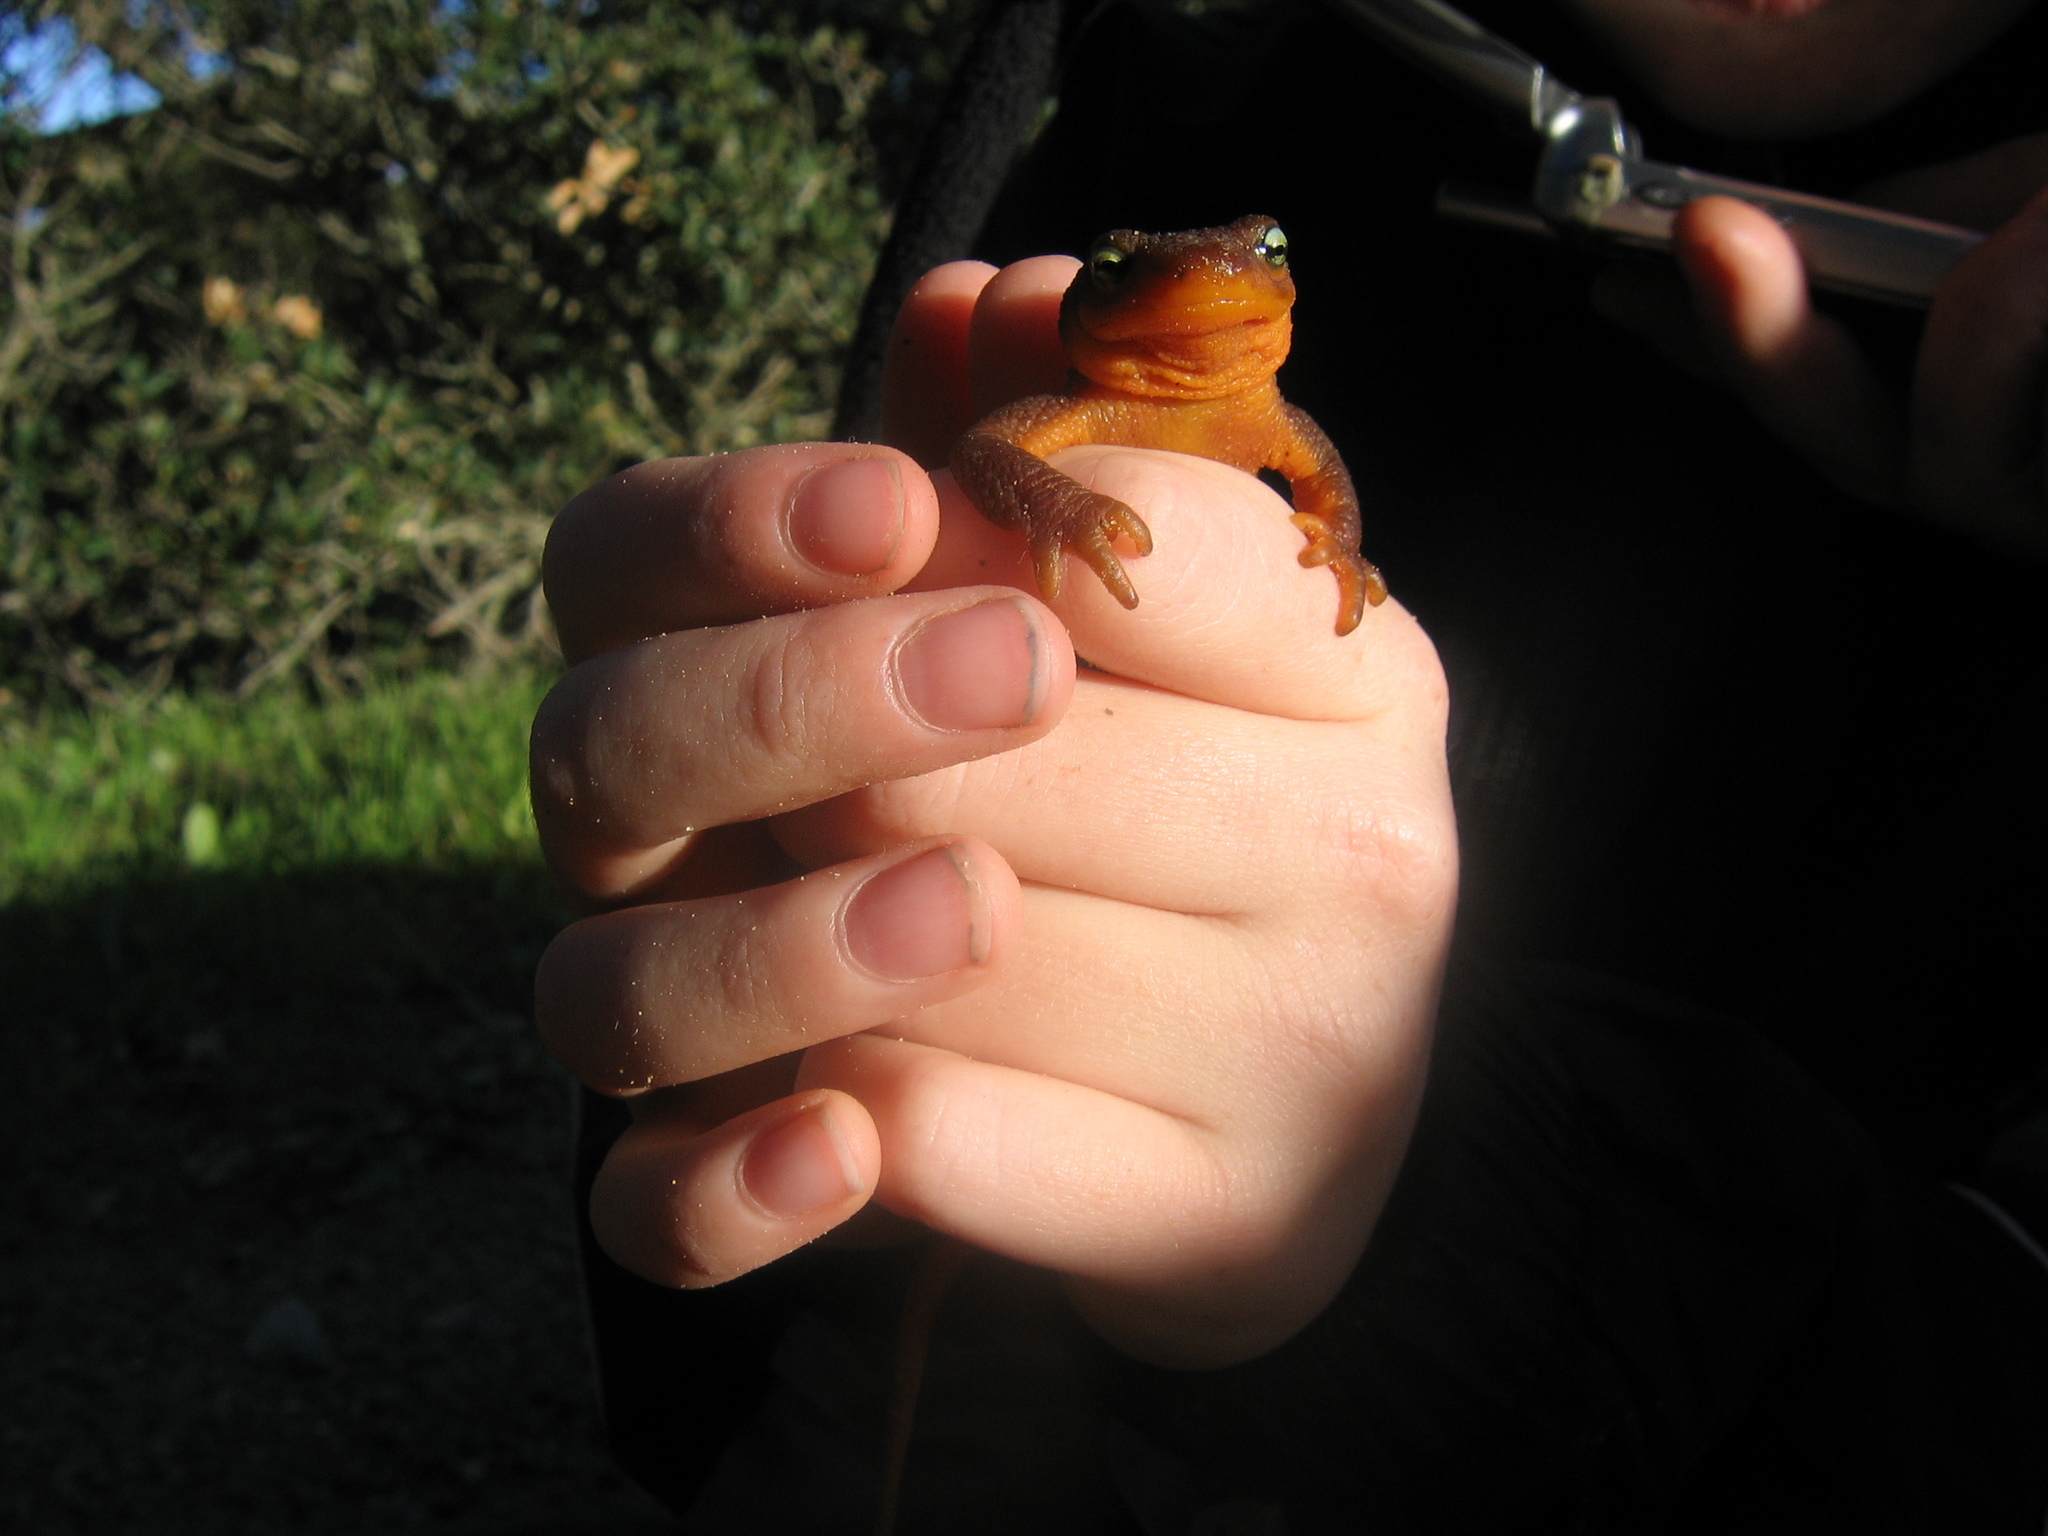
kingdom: Animalia
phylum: Chordata
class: Amphibia
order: Caudata
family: Salamandridae
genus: Taricha
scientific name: Taricha torosa
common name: California newt
